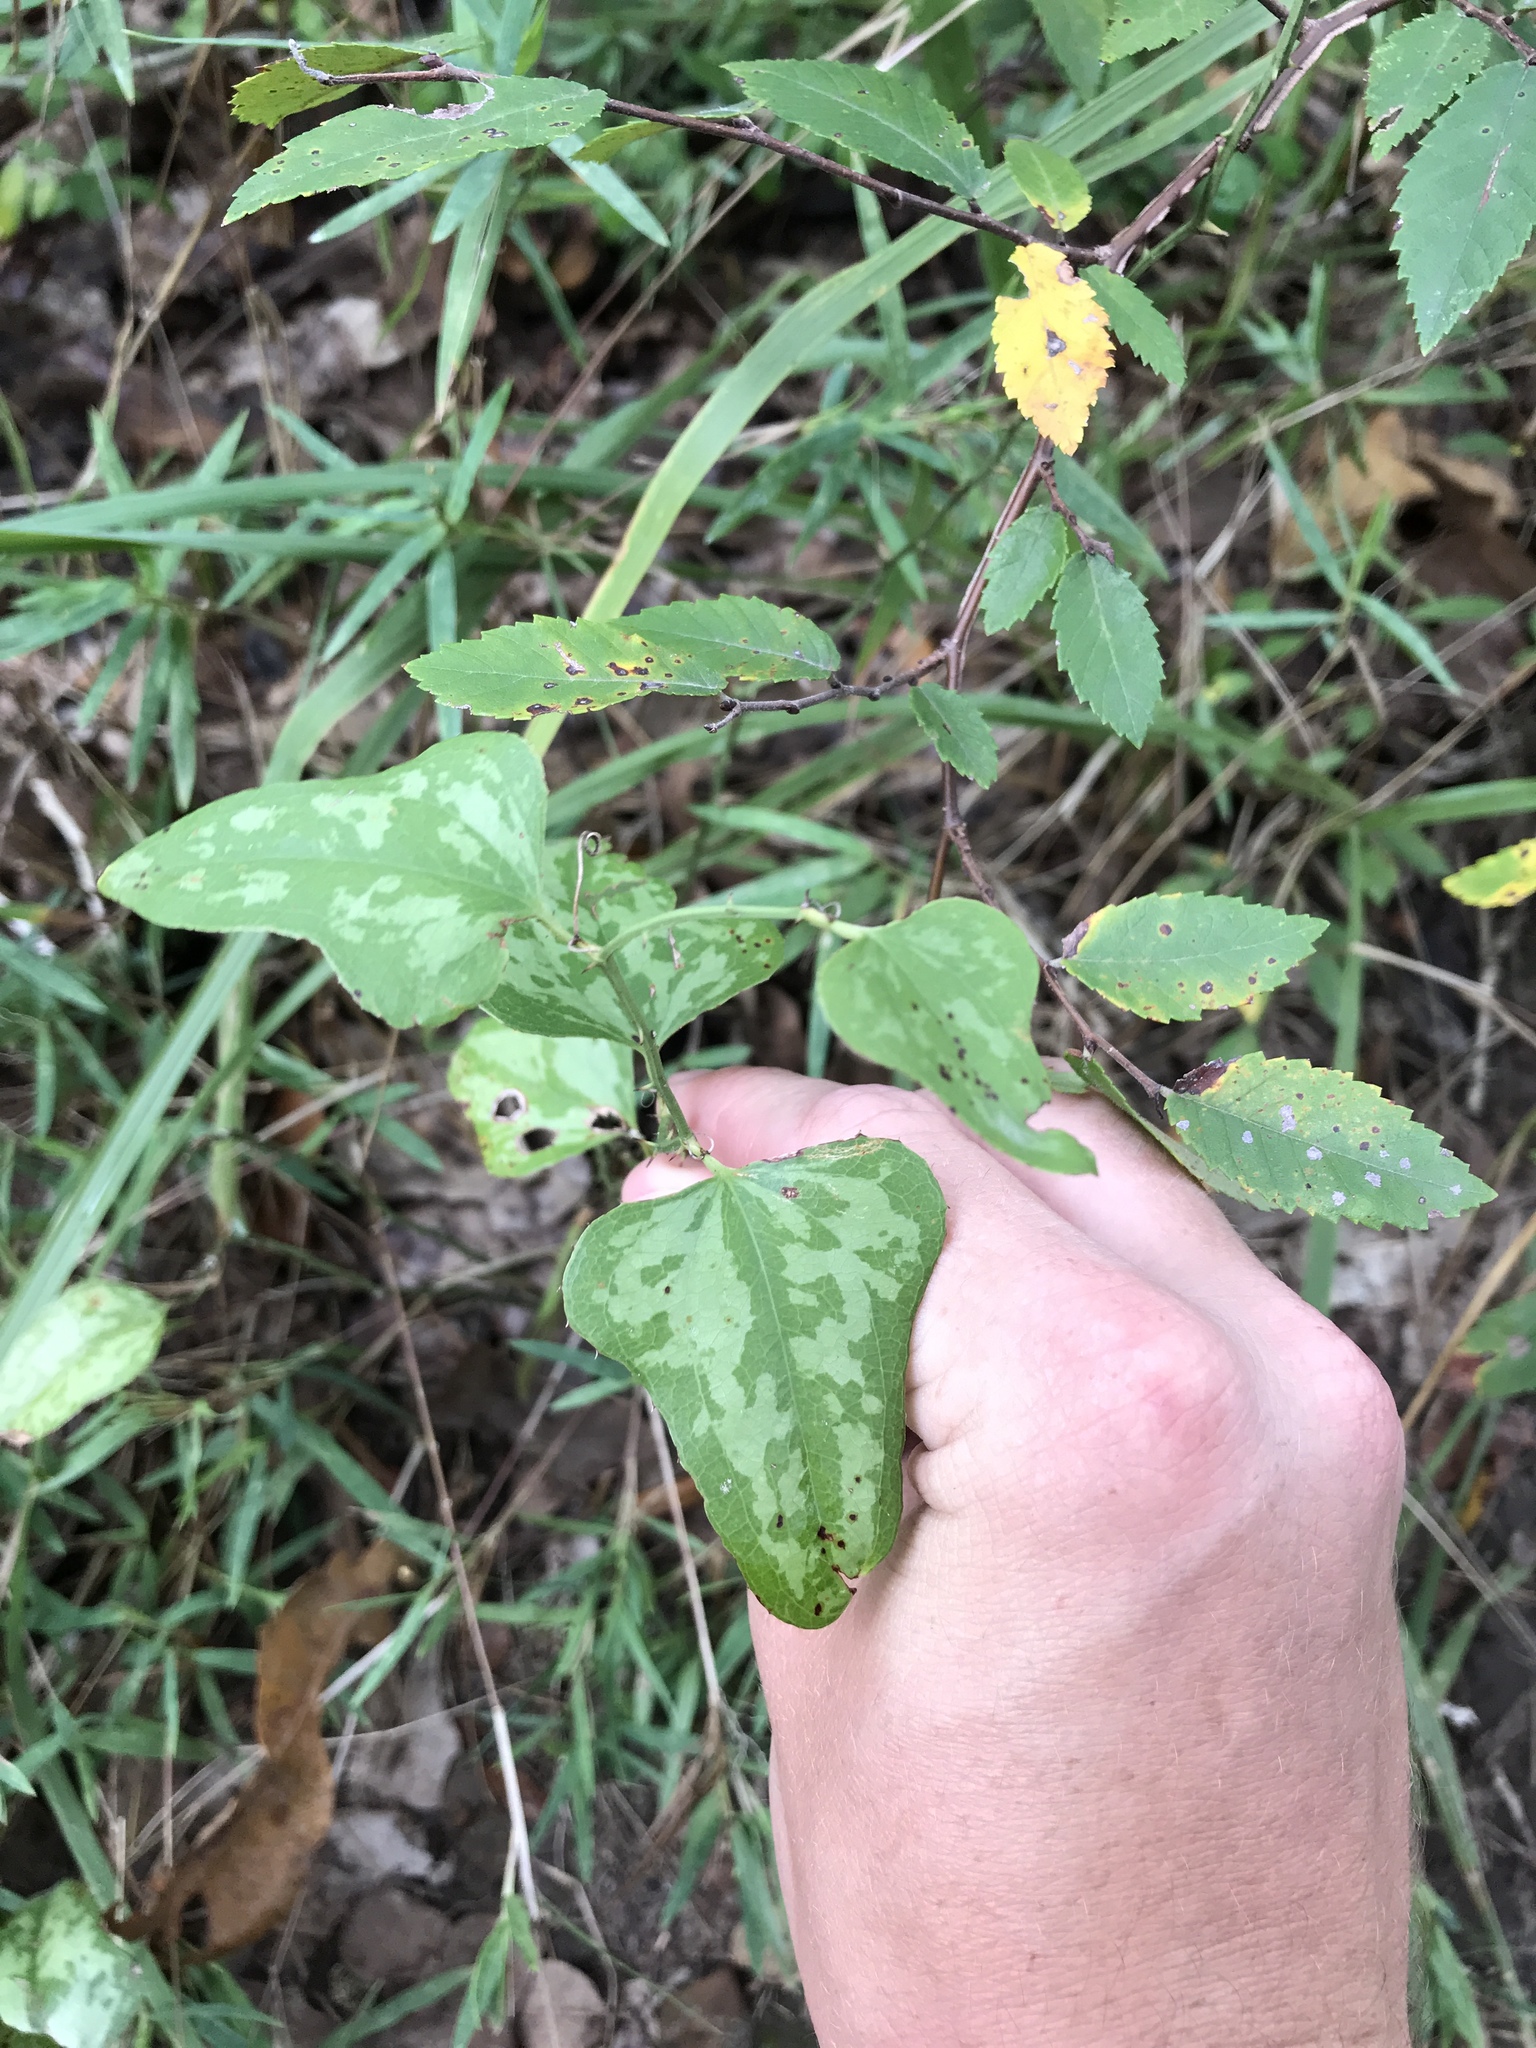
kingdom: Plantae
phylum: Tracheophyta
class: Liliopsida
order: Liliales
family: Smilacaceae
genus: Smilax
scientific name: Smilax bona-nox
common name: Catbrier
